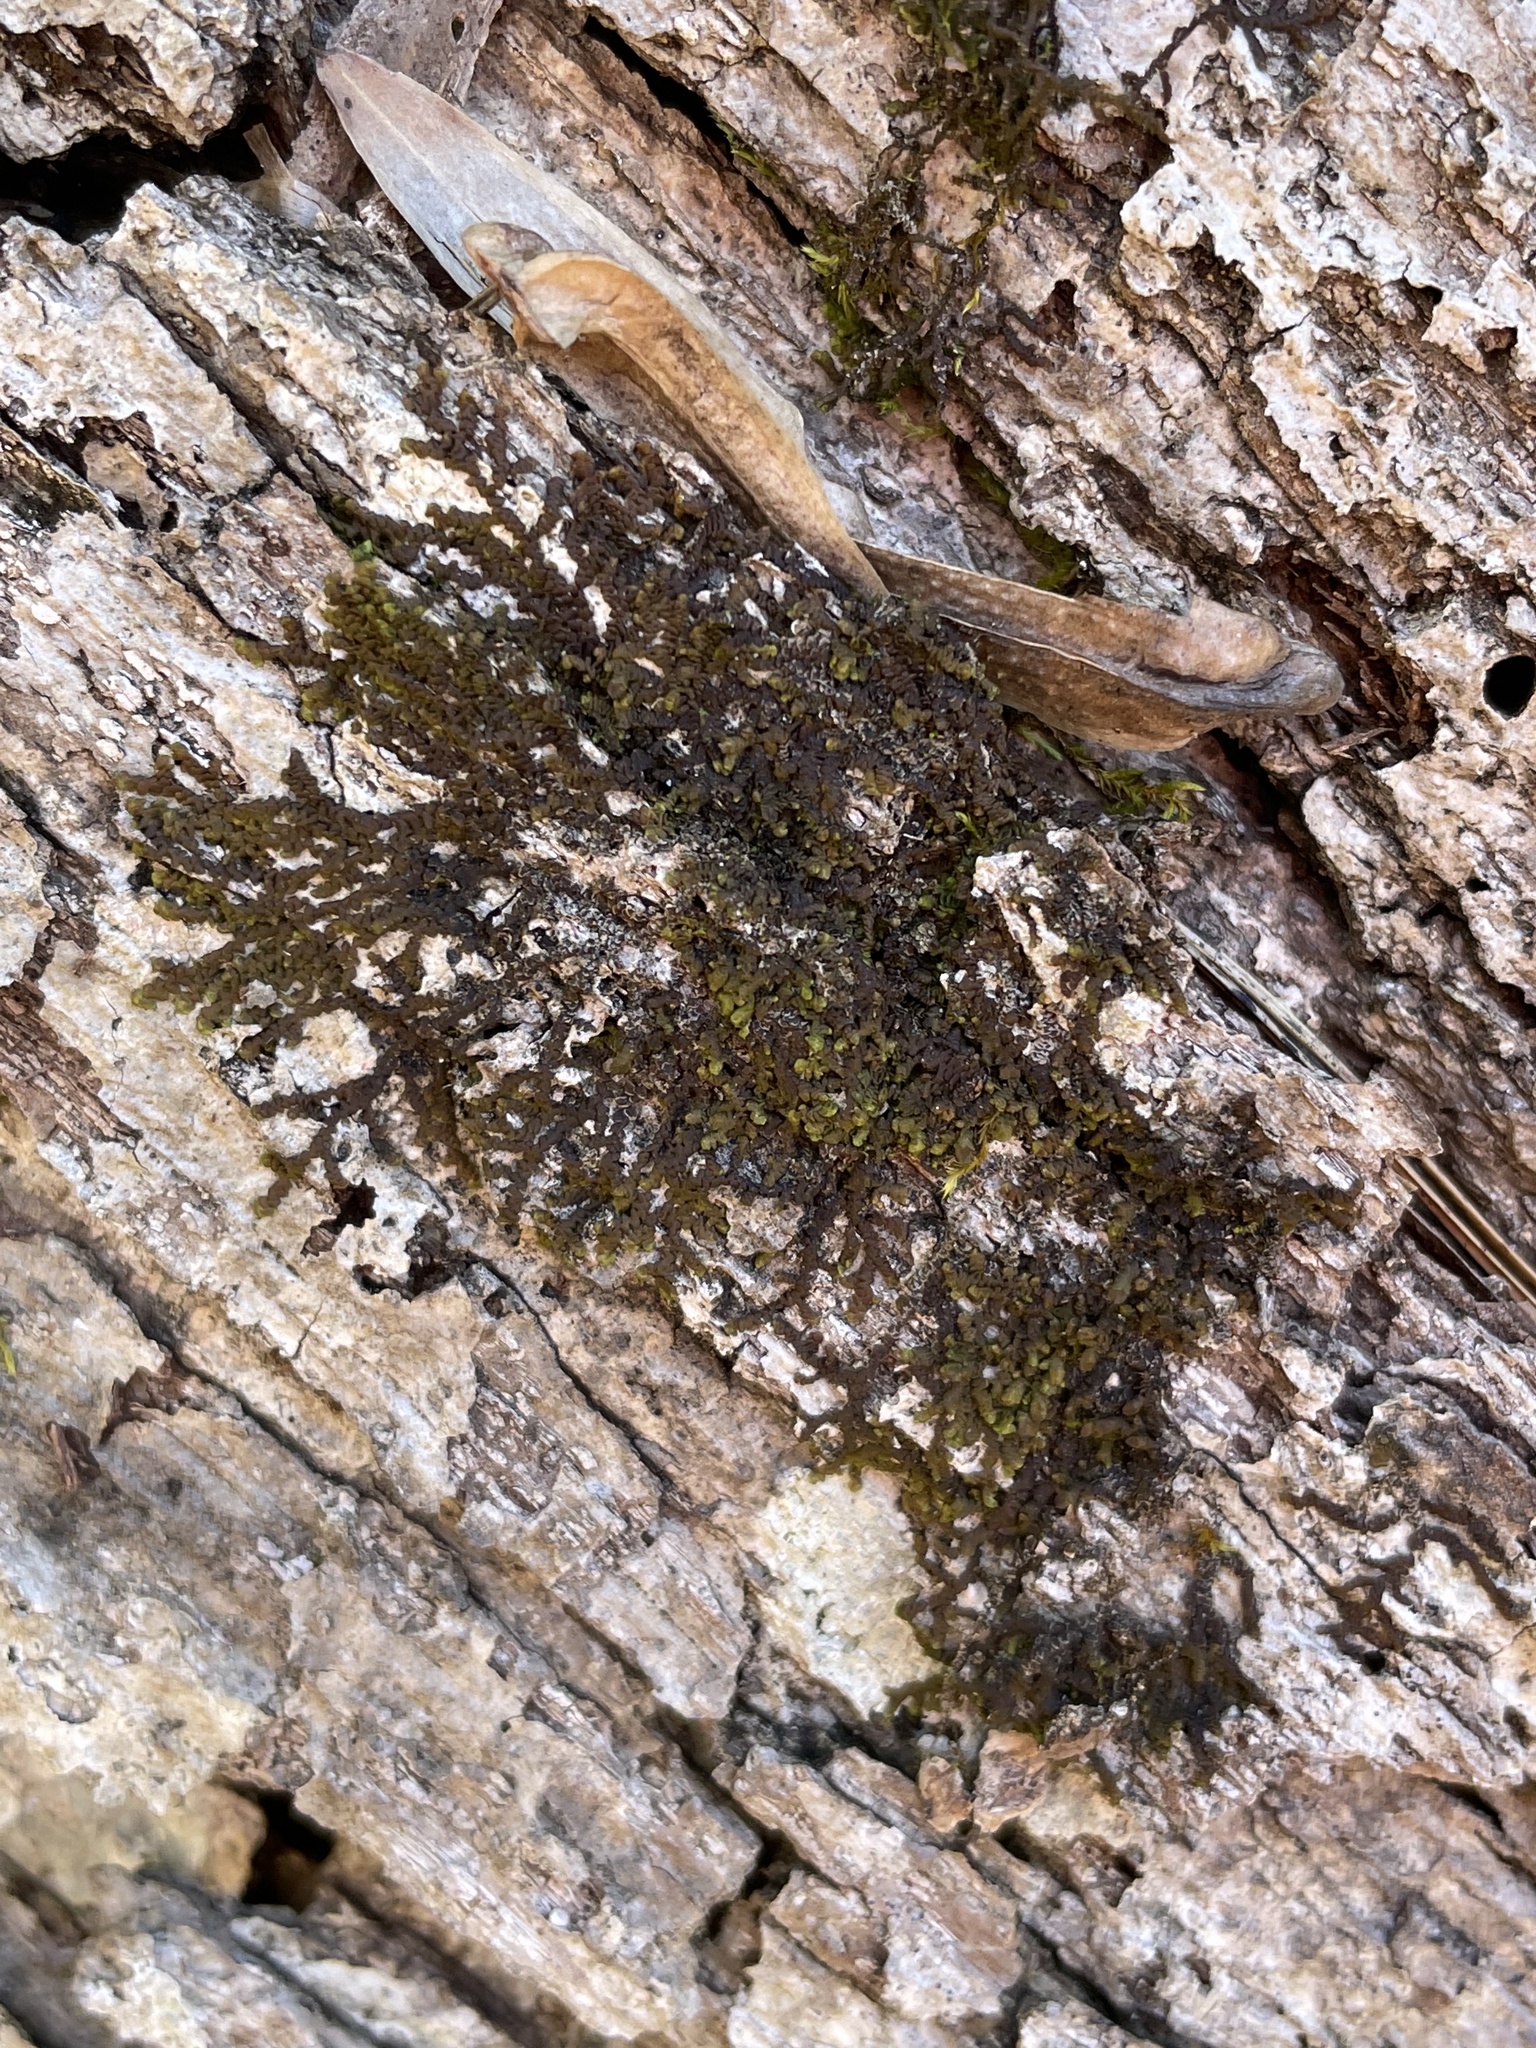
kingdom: Plantae
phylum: Marchantiophyta
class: Jungermanniopsida
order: Porellales
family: Frullaniaceae
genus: Frullania
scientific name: Frullania eboracensis
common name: New york scalewort
